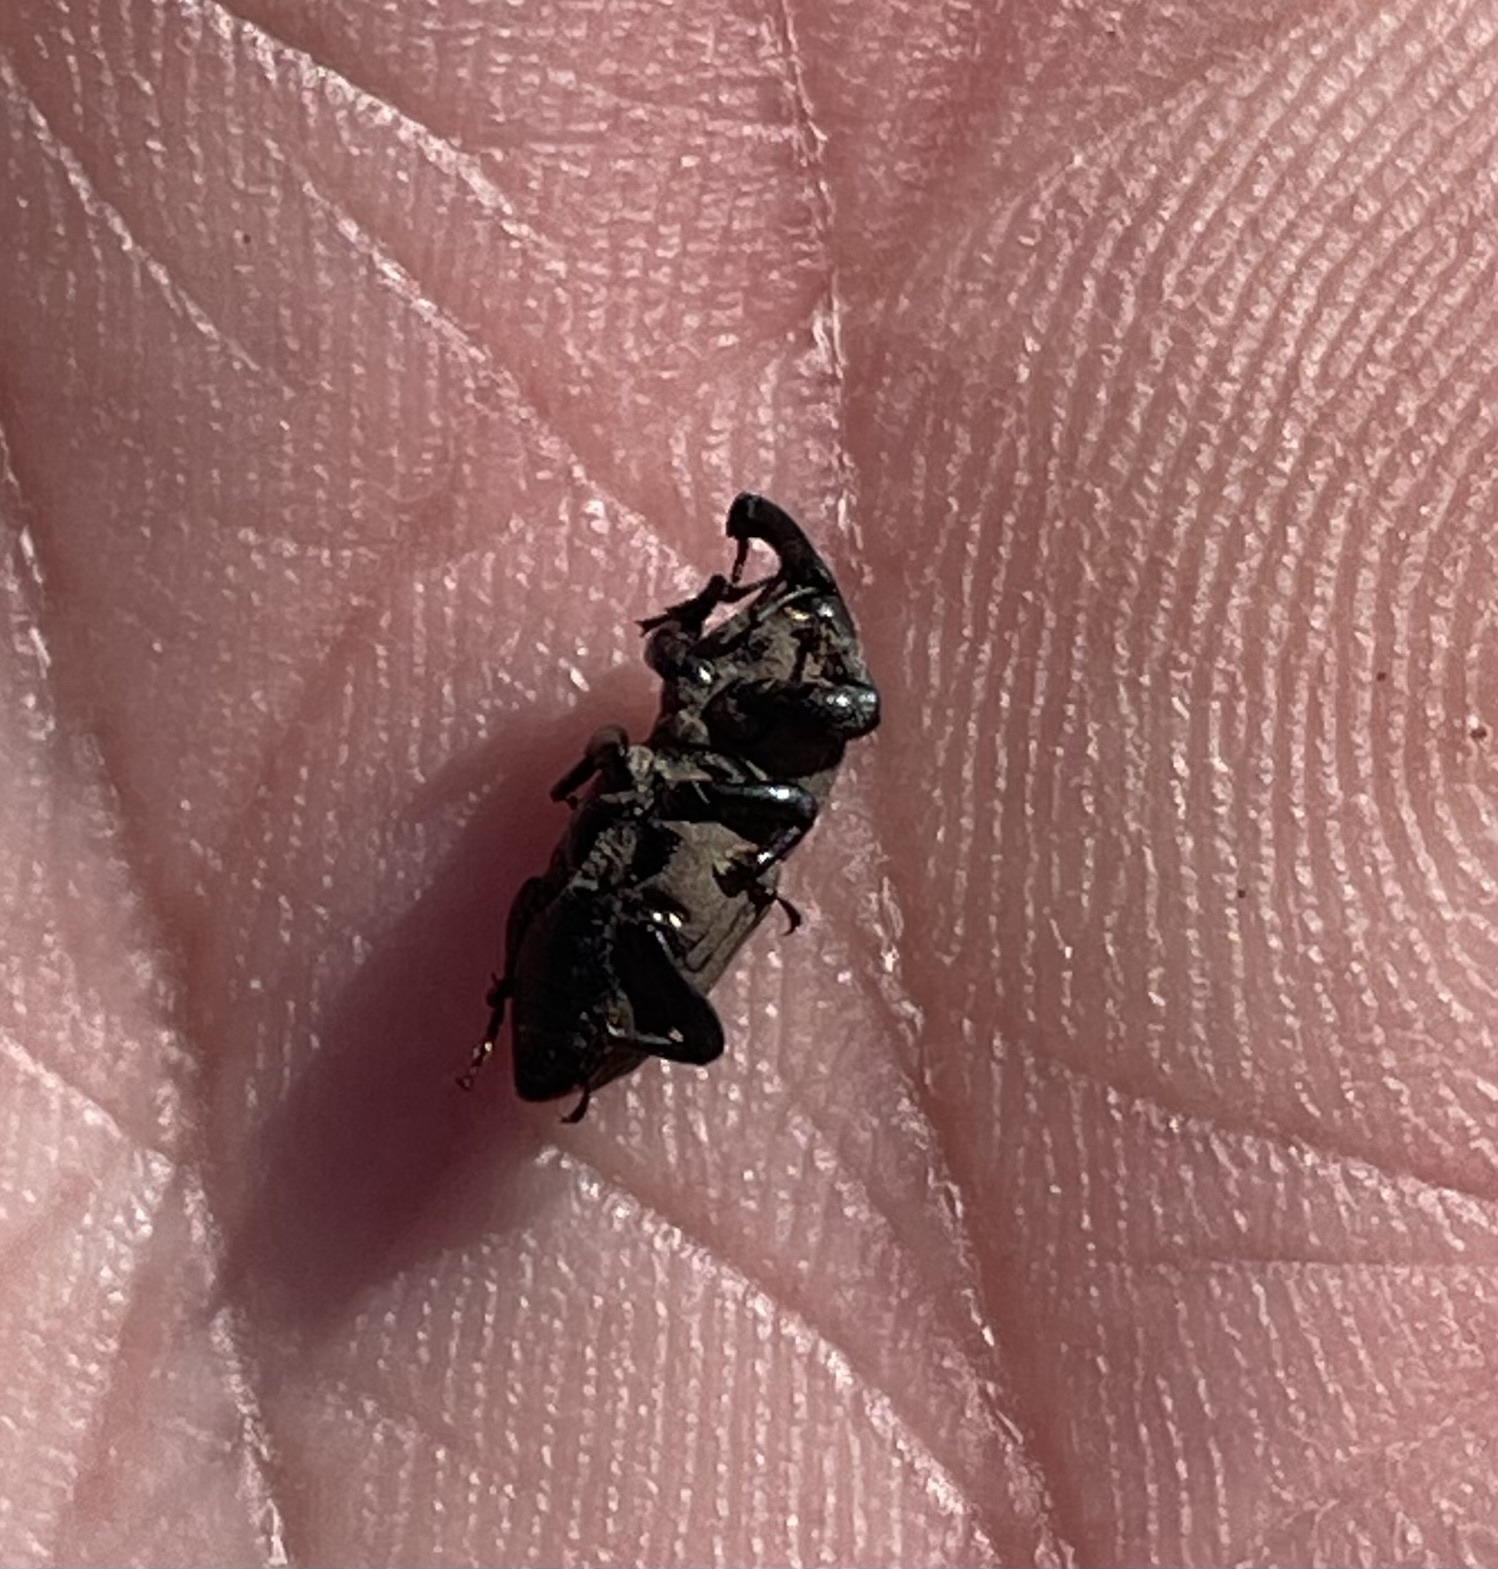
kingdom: Animalia
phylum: Arthropoda
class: Insecta
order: Coleoptera
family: Dryophthoridae
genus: Sphenophorus
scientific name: Sphenophorus coesifrons
